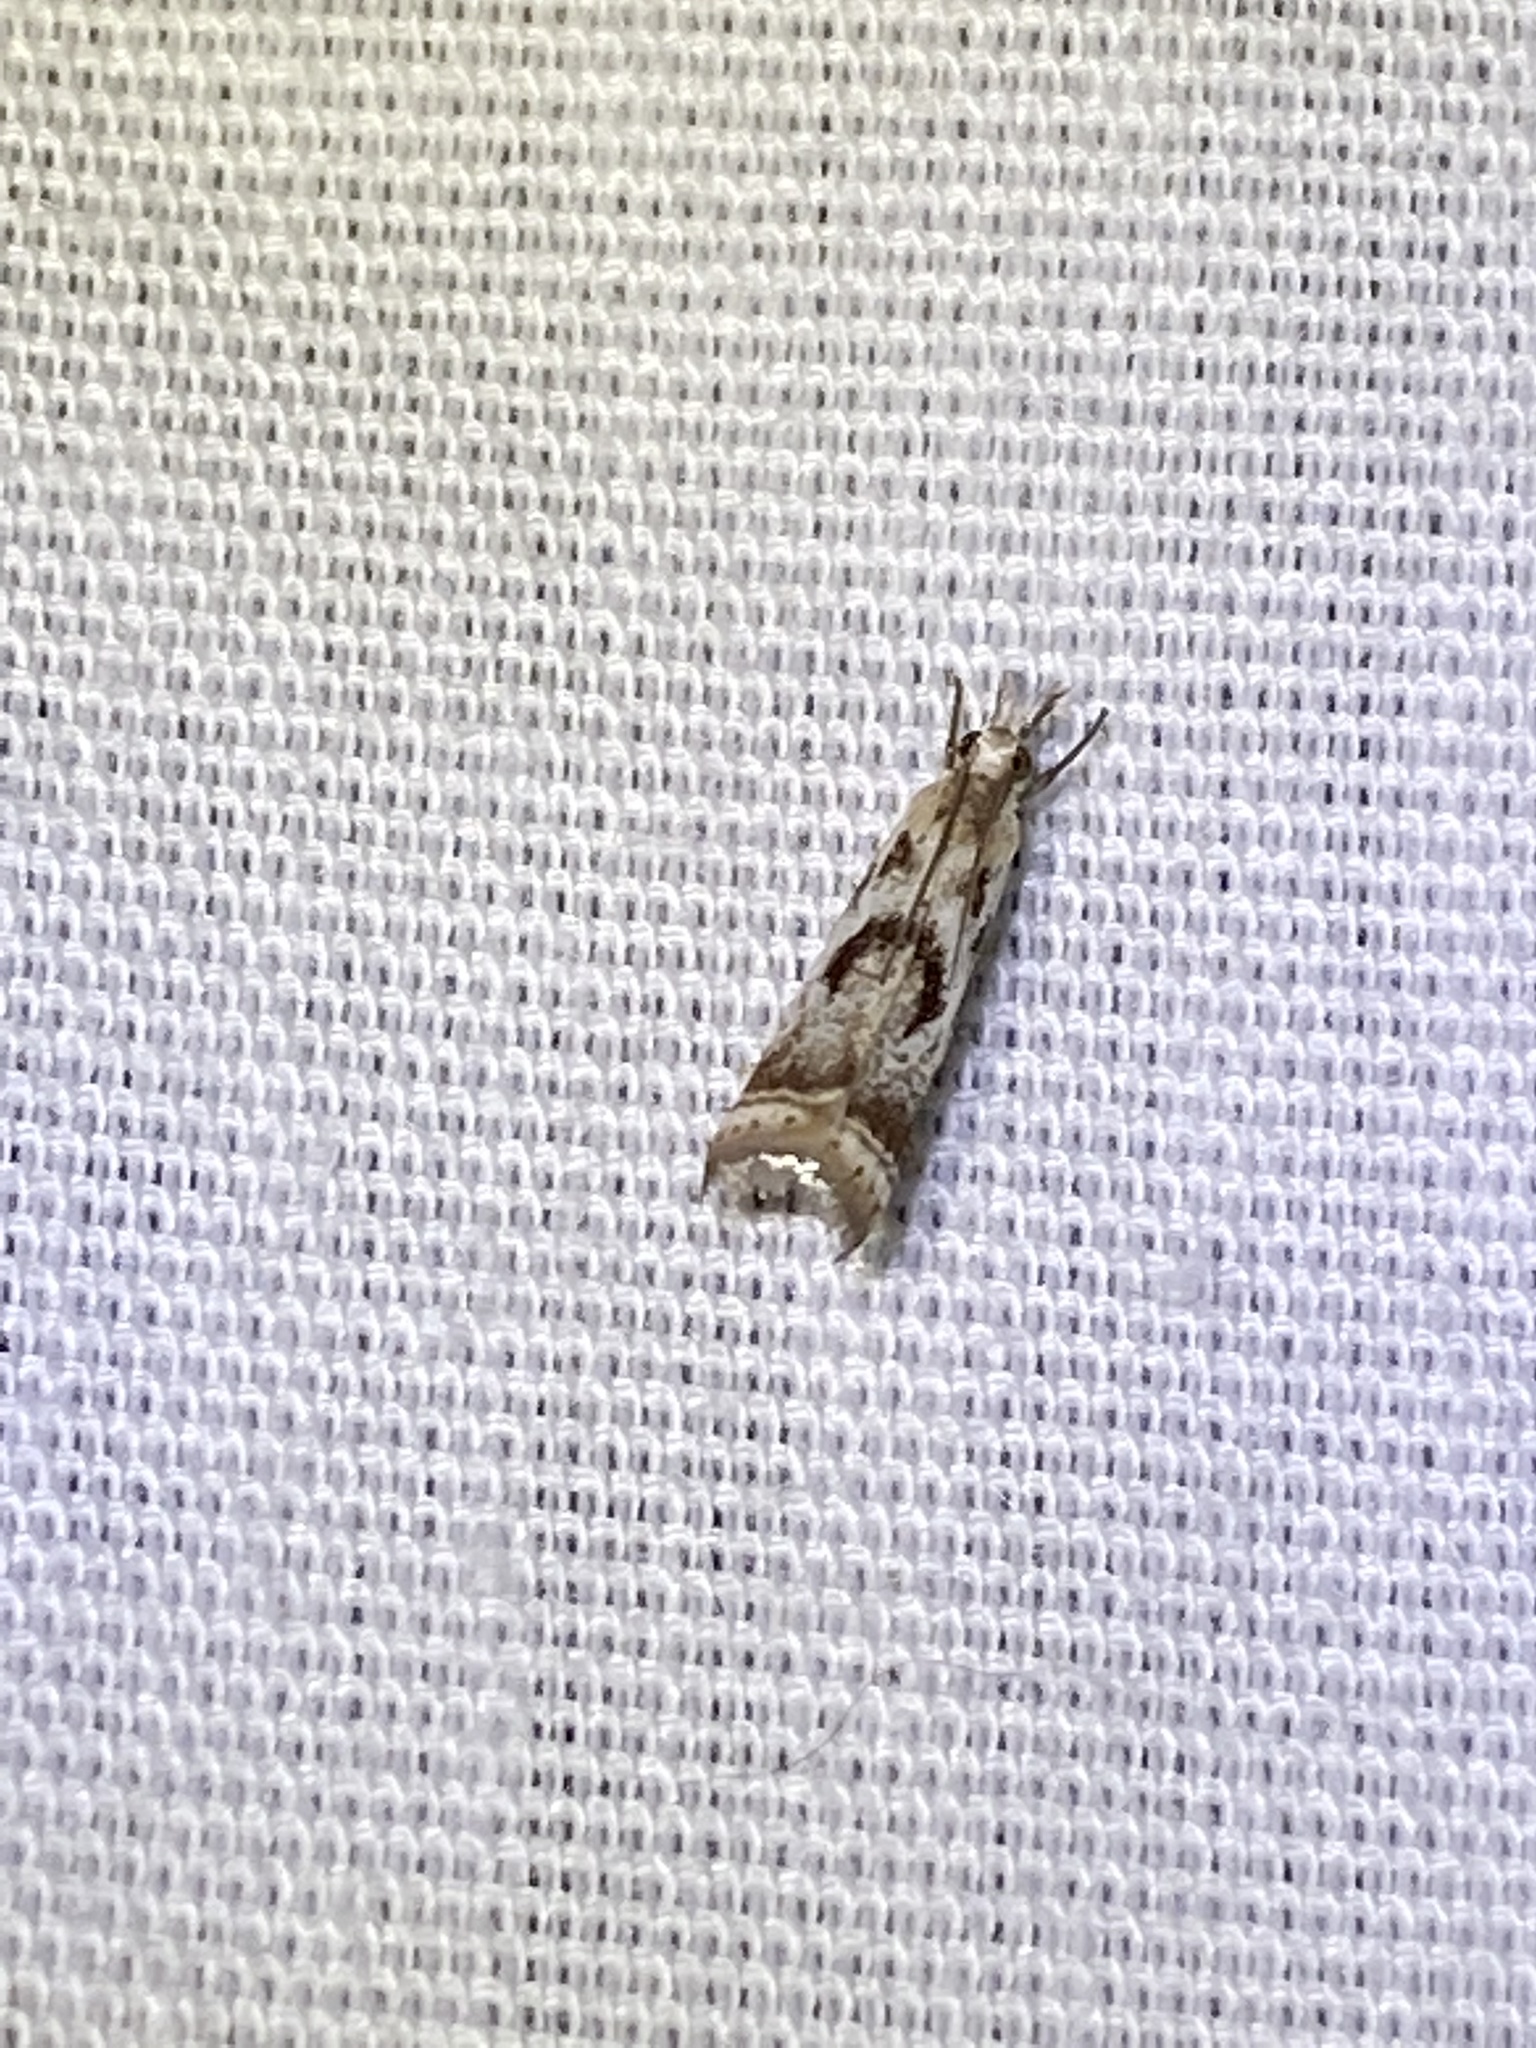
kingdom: Animalia
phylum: Arthropoda
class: Insecta
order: Lepidoptera
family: Crambidae
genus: Microcrambus
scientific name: Microcrambus elegans
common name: Elegant grass-veneer
